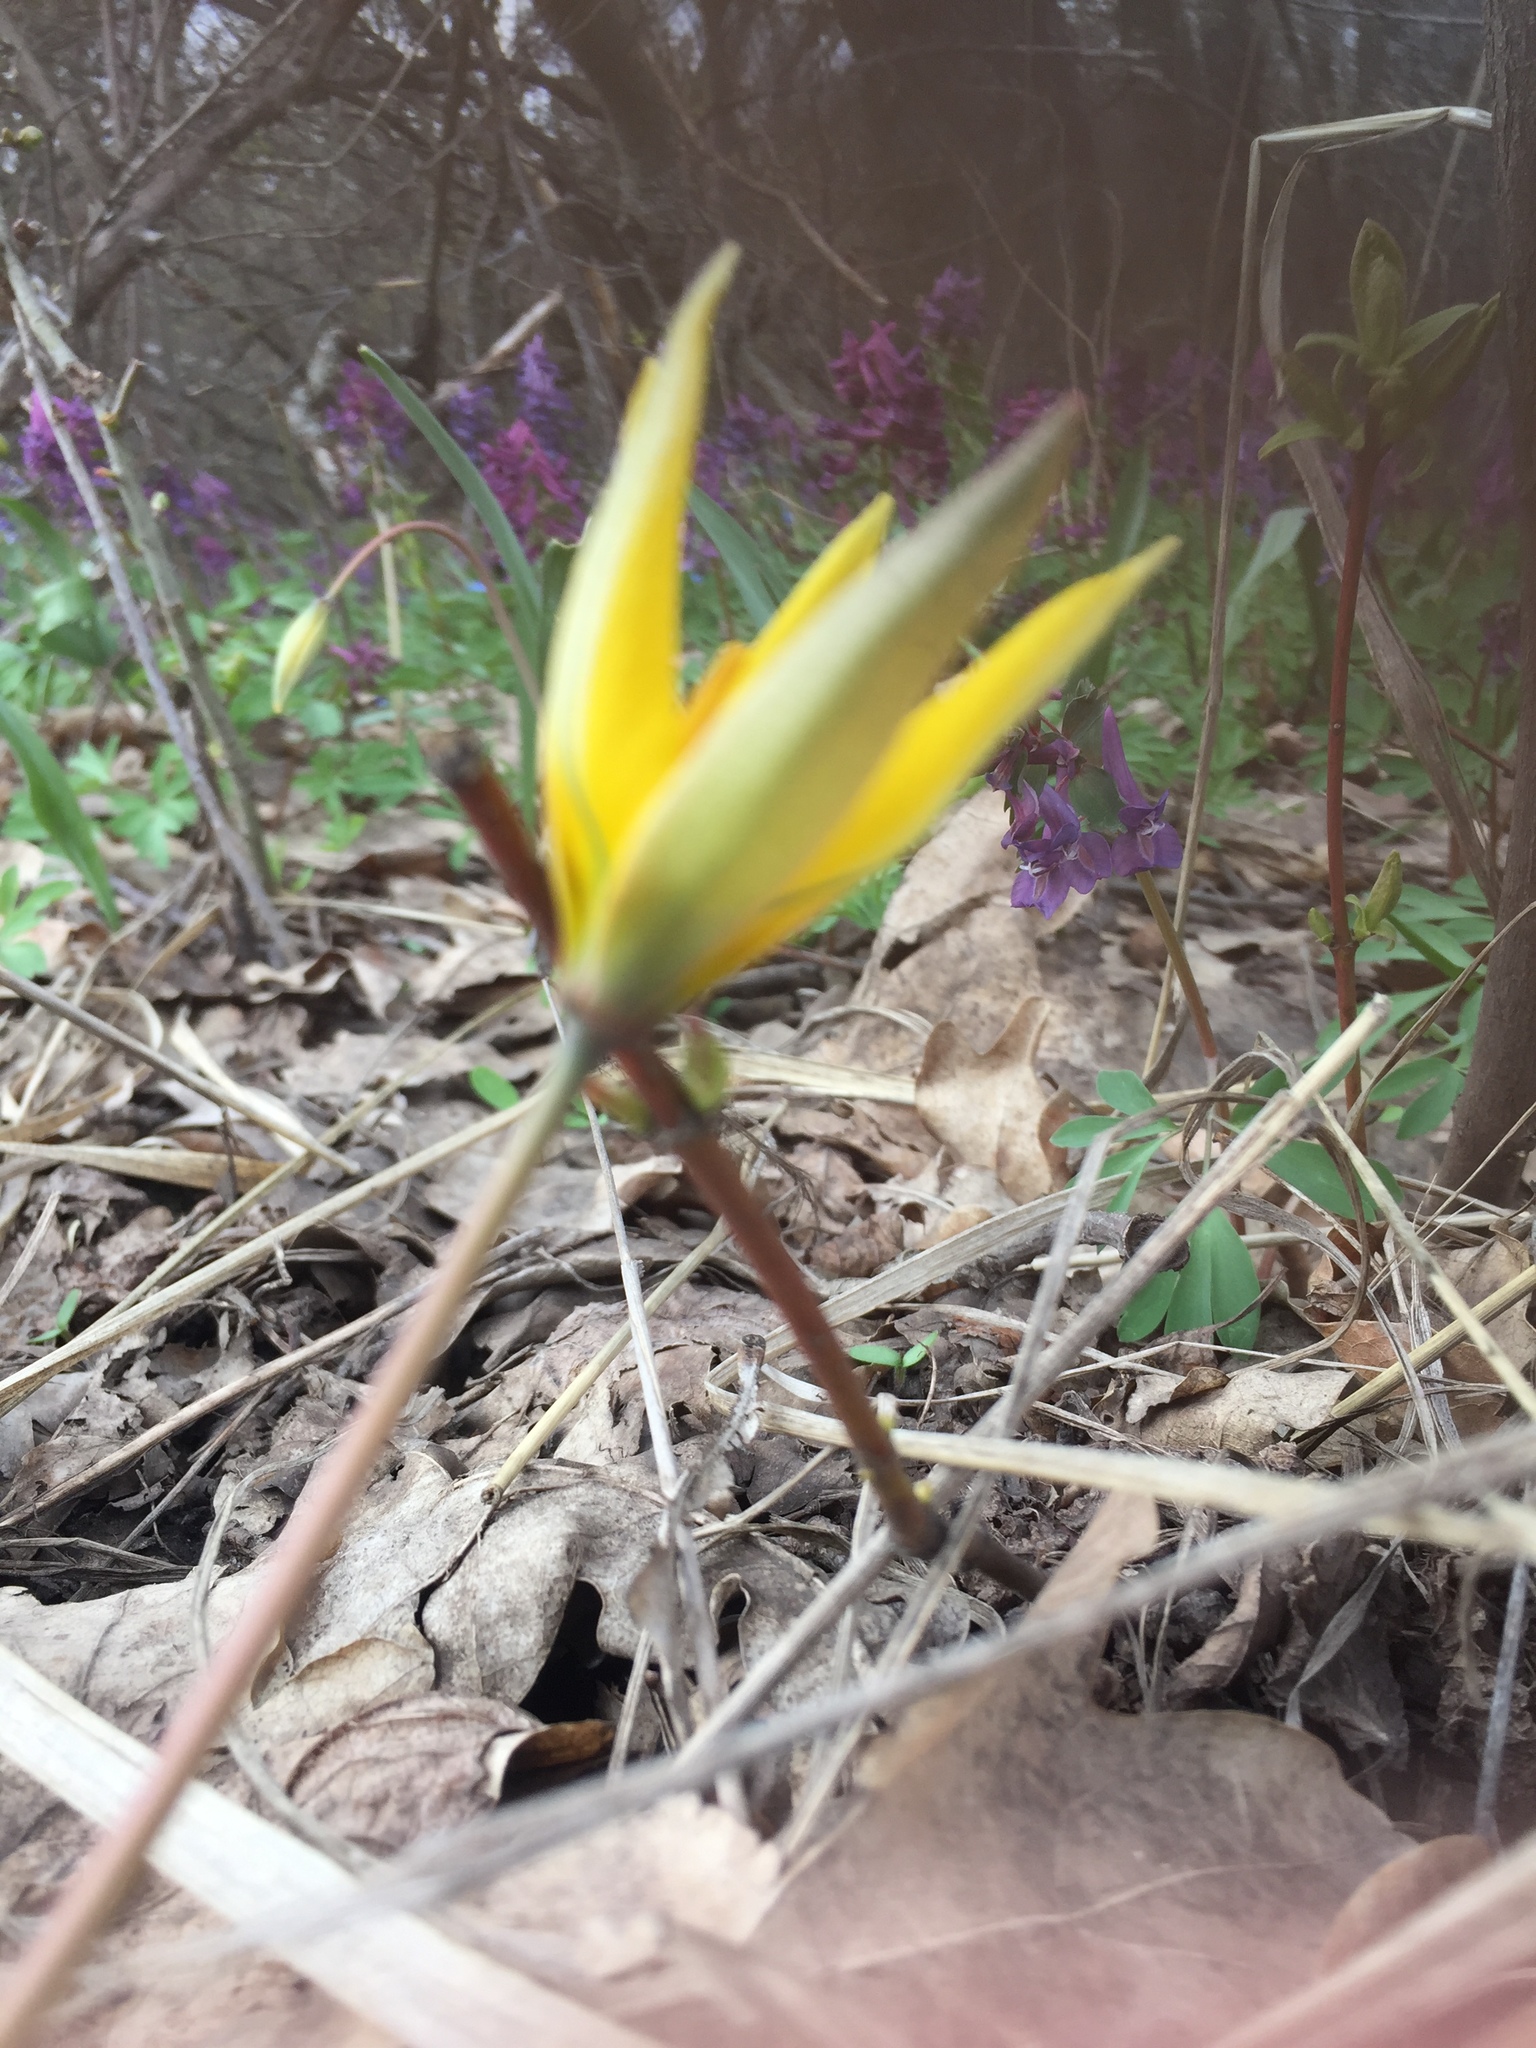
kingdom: Plantae
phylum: Tracheophyta
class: Liliopsida
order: Liliales
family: Liliaceae
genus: Tulipa
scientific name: Tulipa sylvestris
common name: Wild tulip
